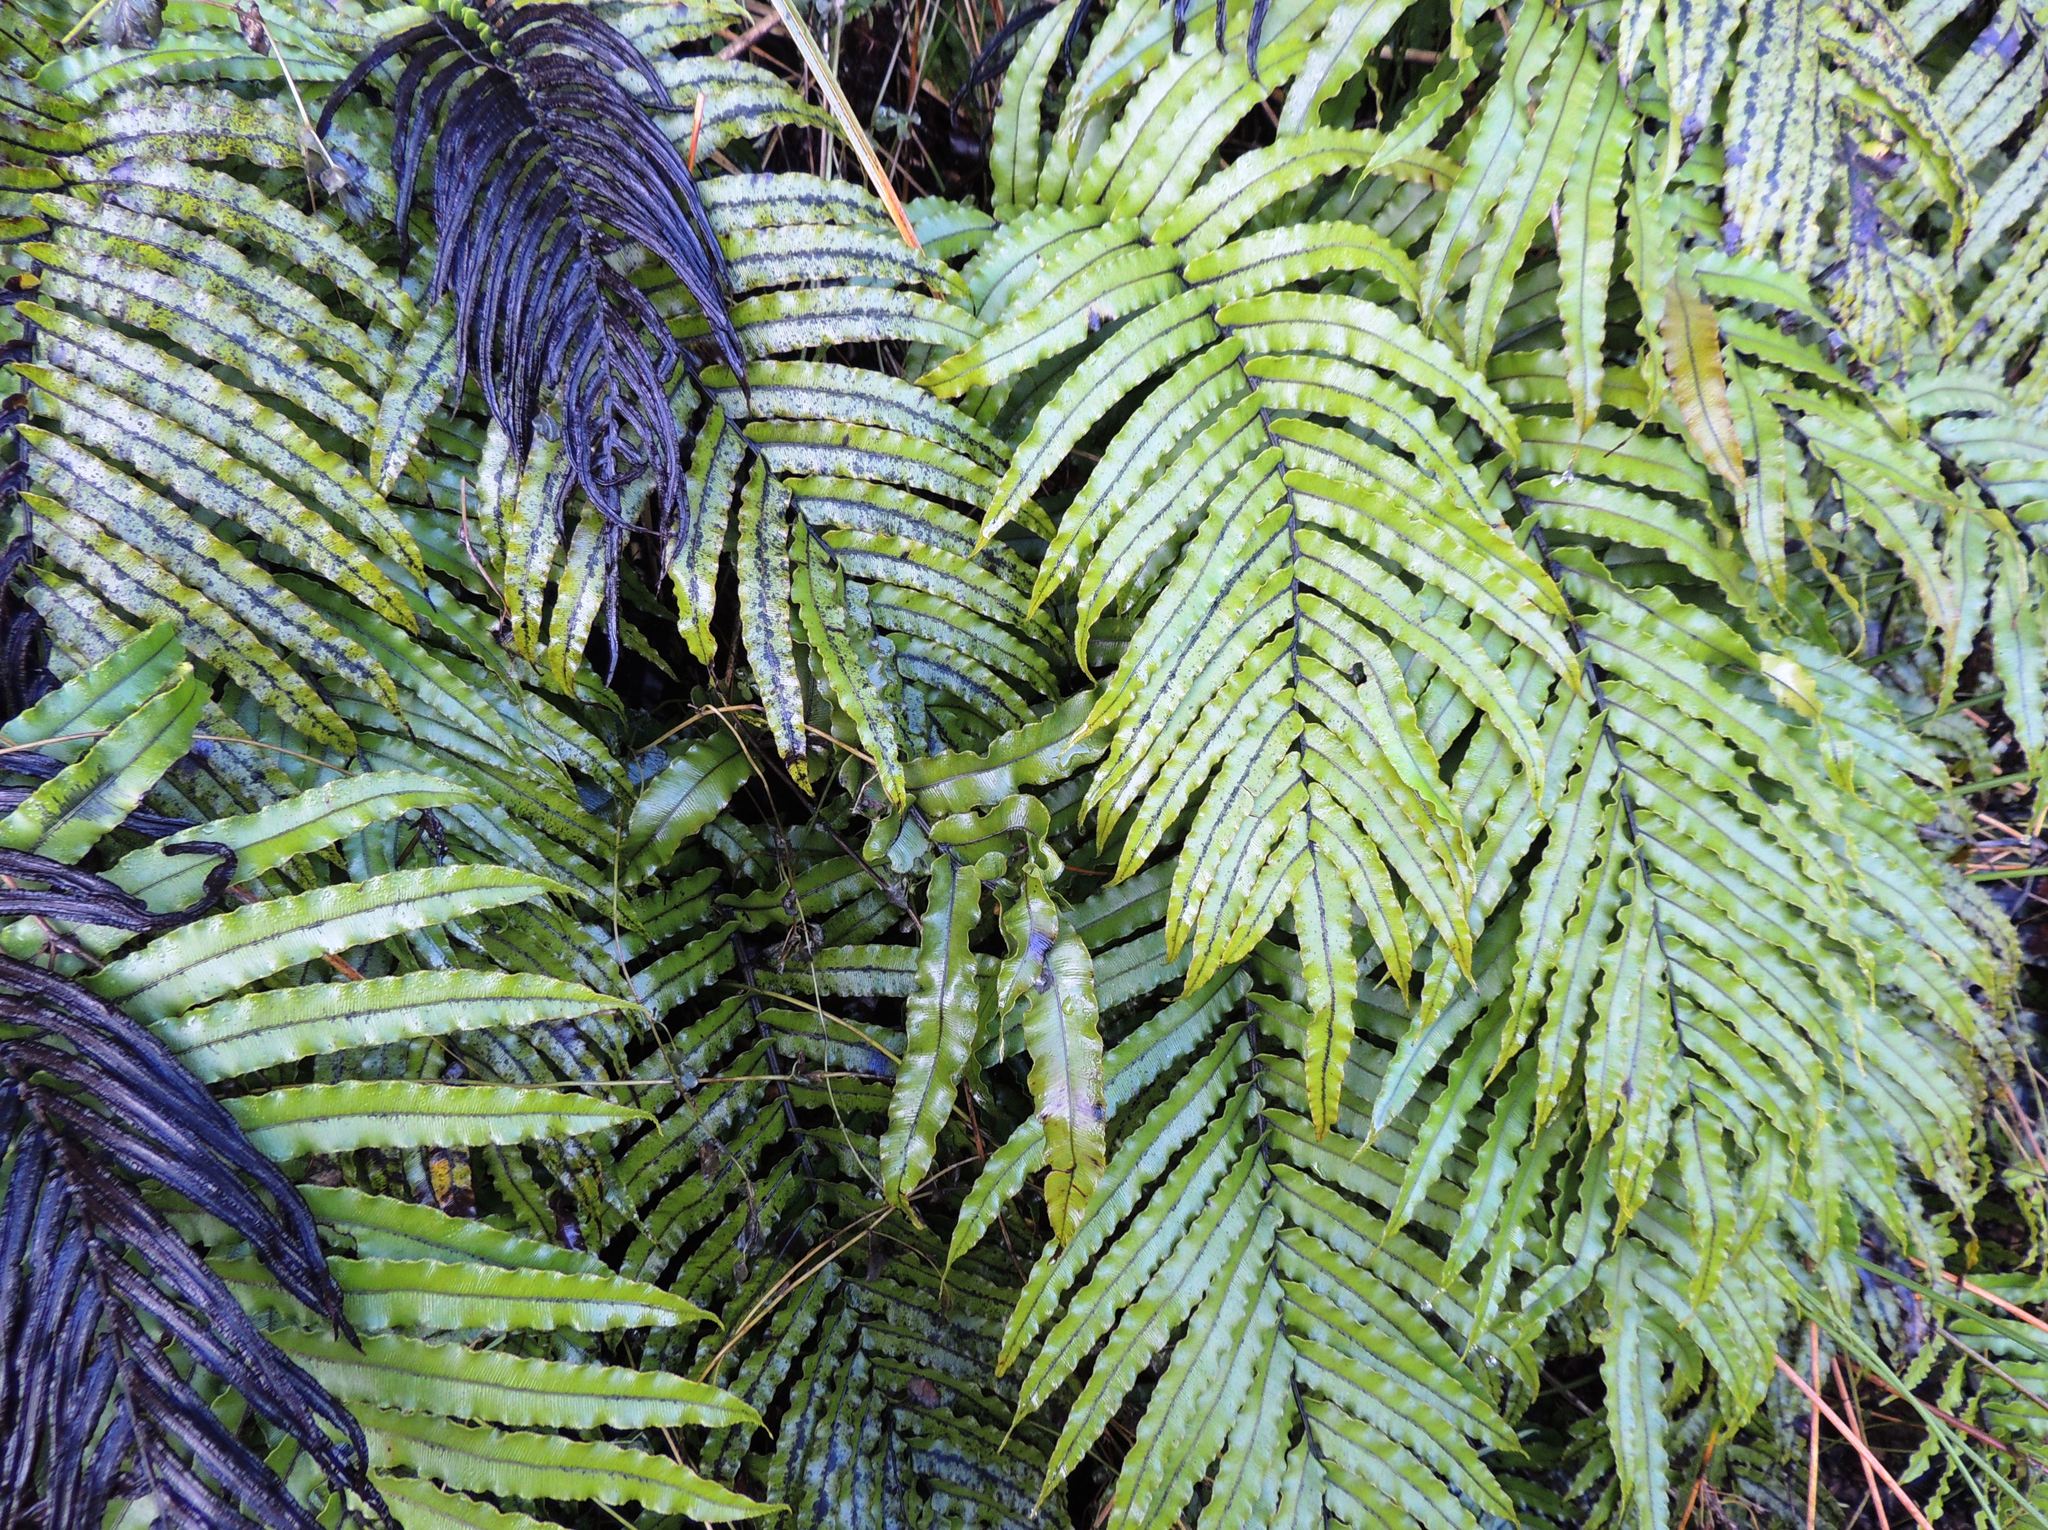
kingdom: Plantae
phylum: Tracheophyta
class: Polypodiopsida
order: Polypodiales
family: Blechnaceae
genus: Parablechnum
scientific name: Parablechnum novae-zelandiae
